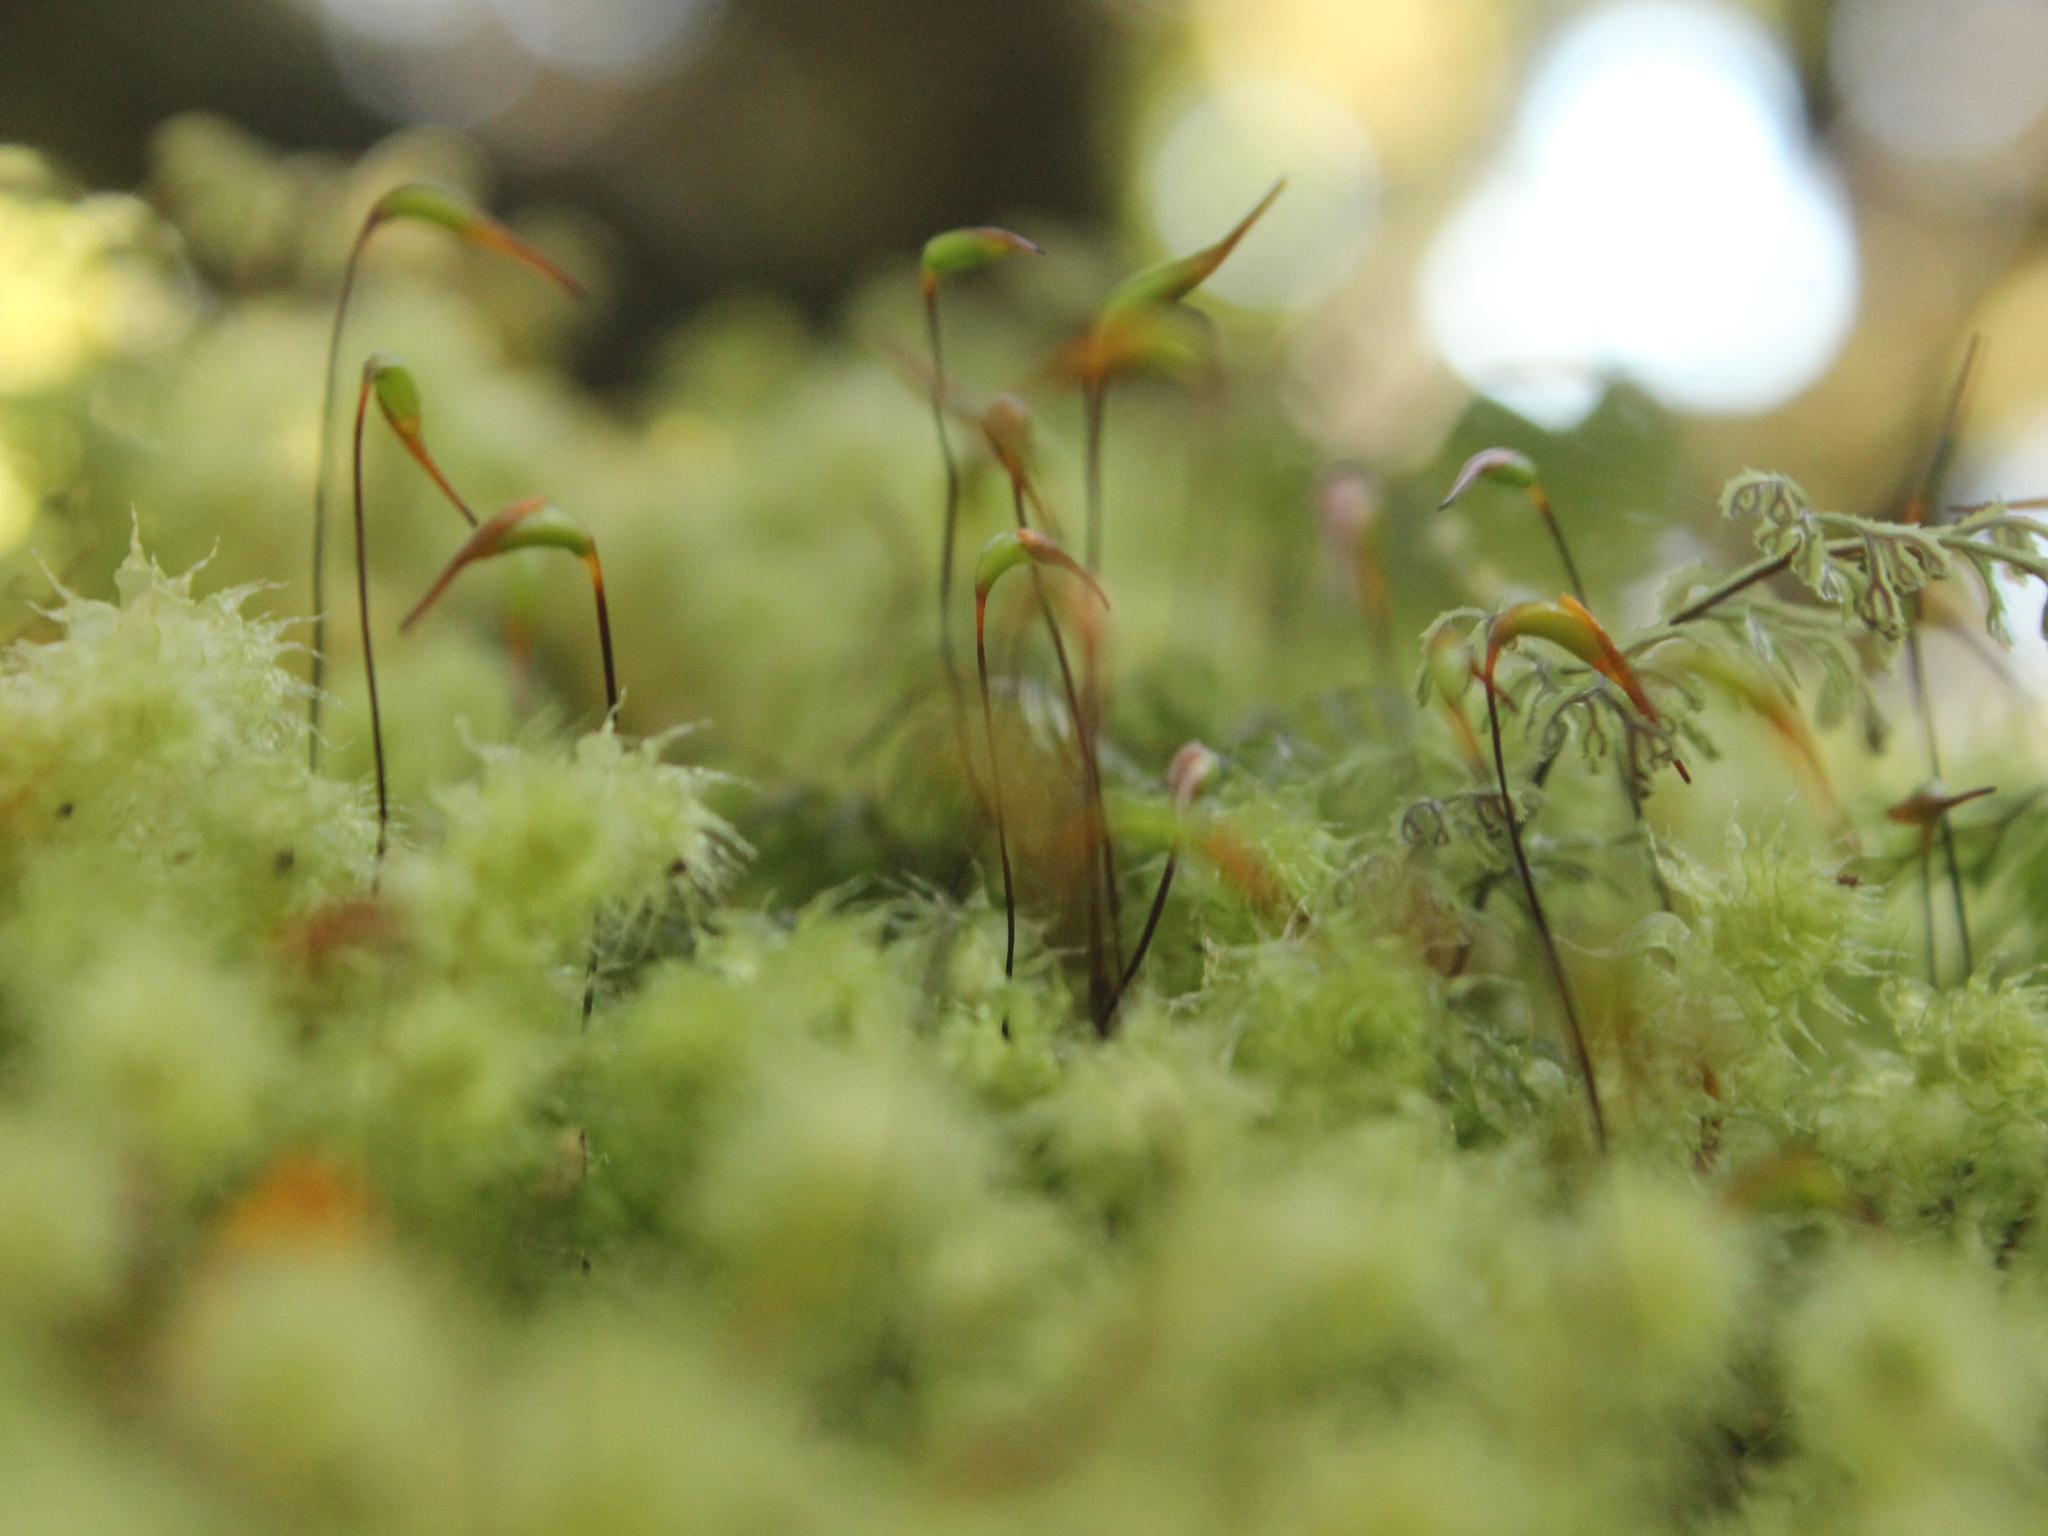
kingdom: Plantae
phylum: Bryophyta
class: Bryopsida
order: Ptychomniales
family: Ptychomniaceae
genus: Ptychomnion
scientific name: Ptychomnion aciculare
